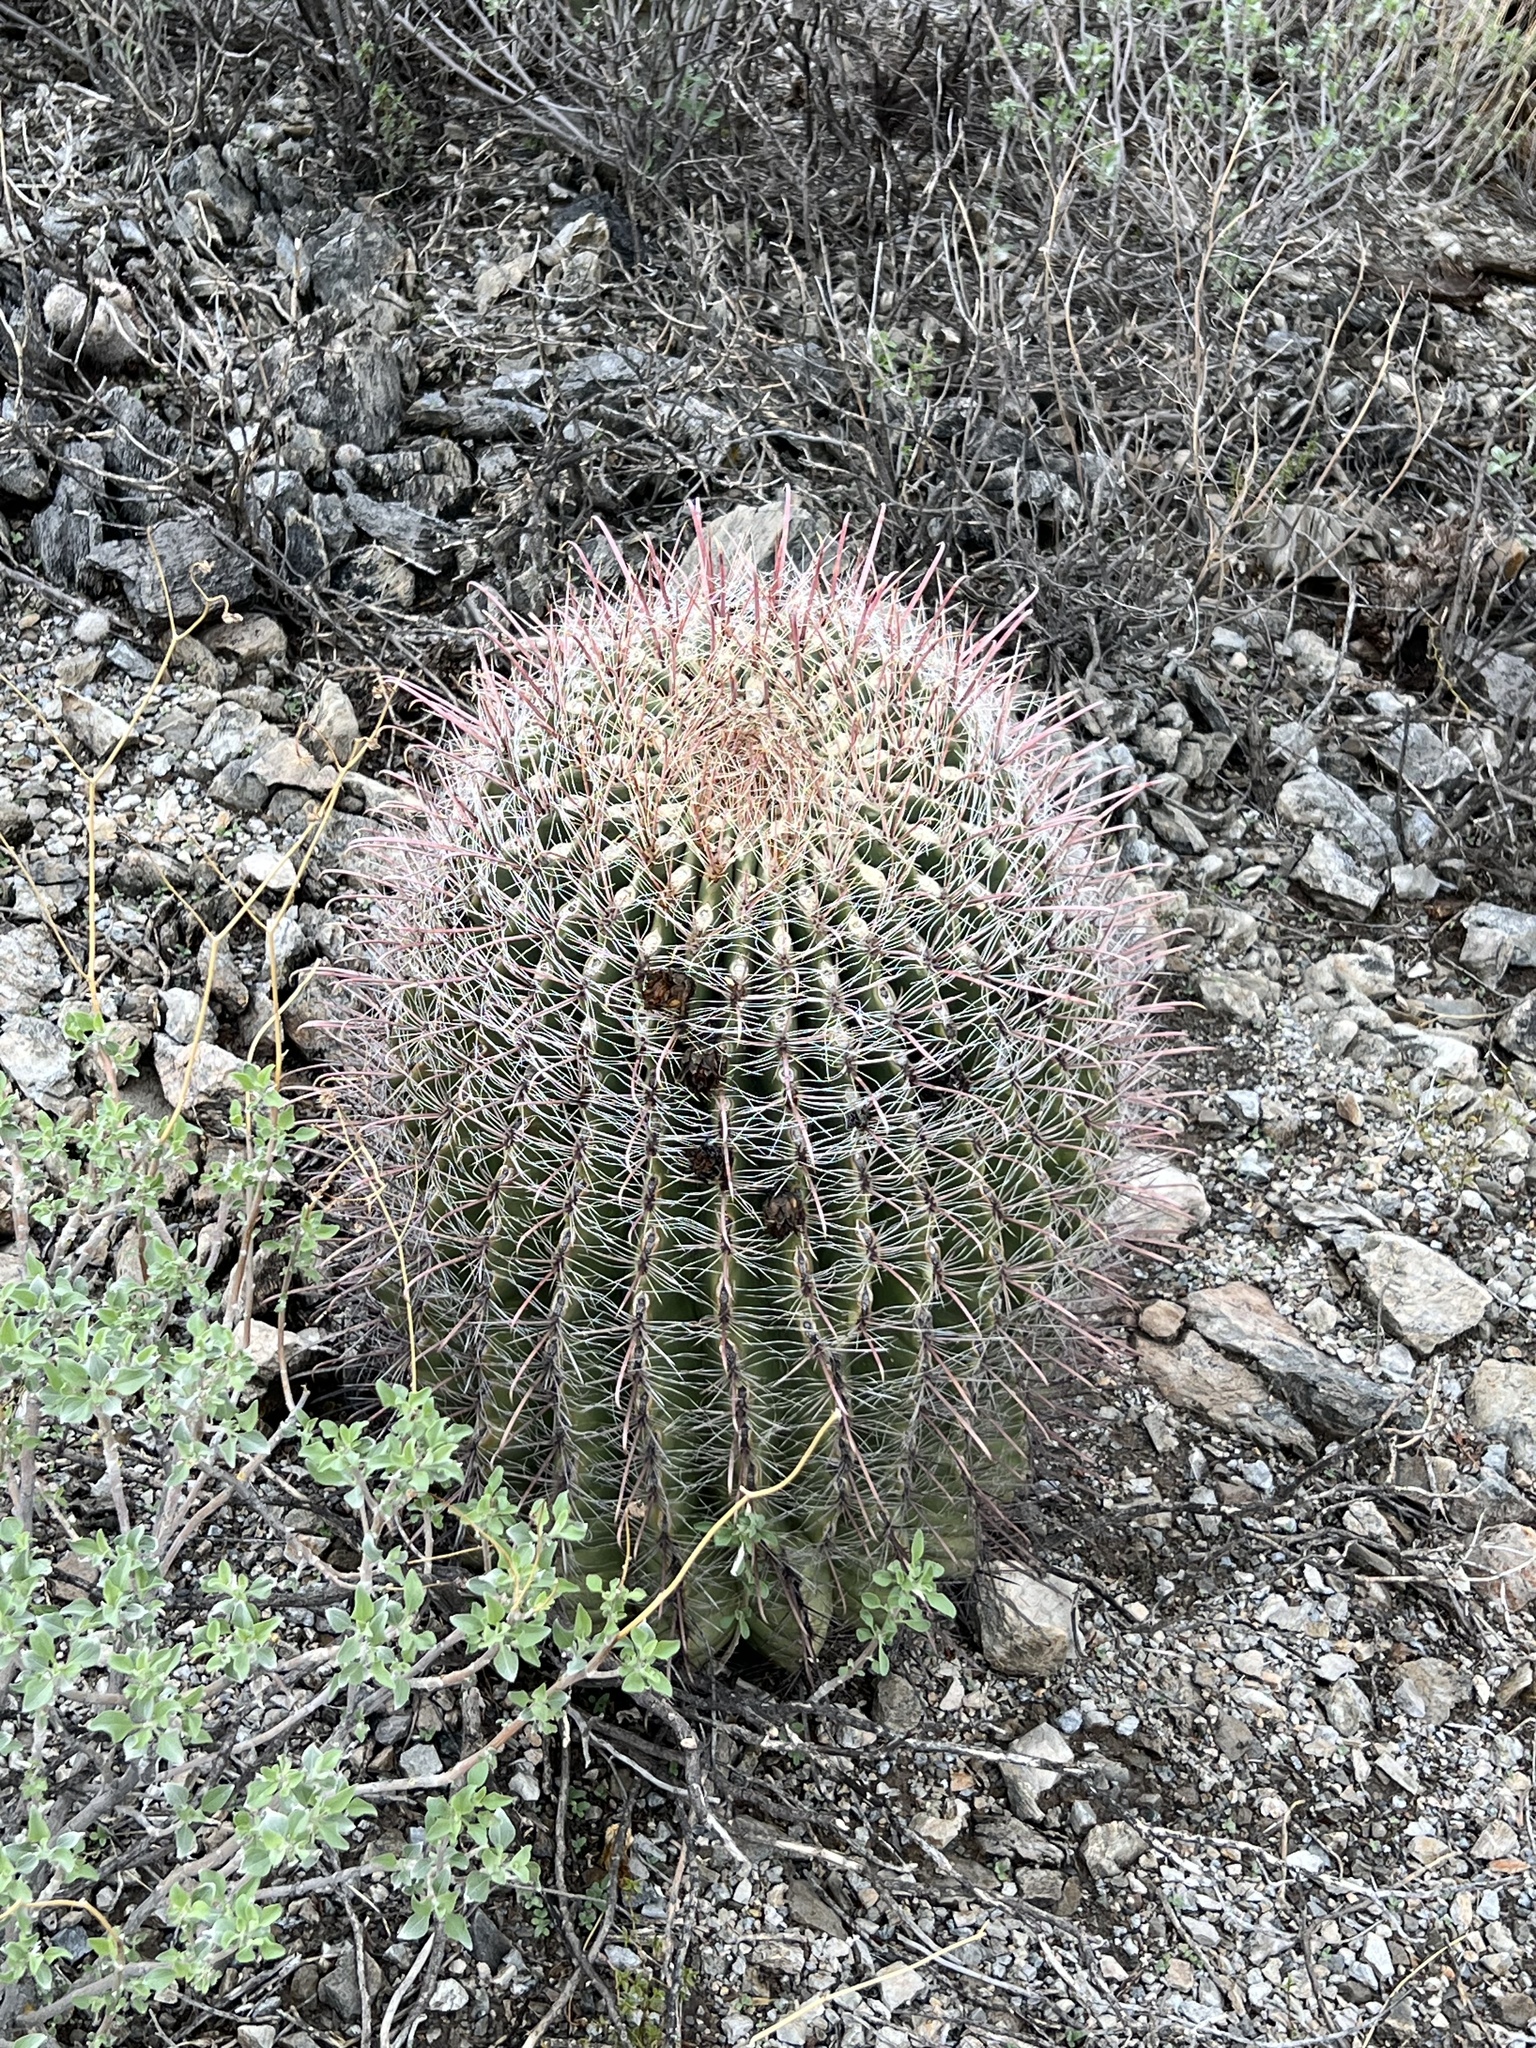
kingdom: Plantae
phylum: Tracheophyta
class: Magnoliopsida
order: Caryophyllales
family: Cactaceae
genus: Ferocactus
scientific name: Ferocactus wislizeni
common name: Candy barrel cactus
